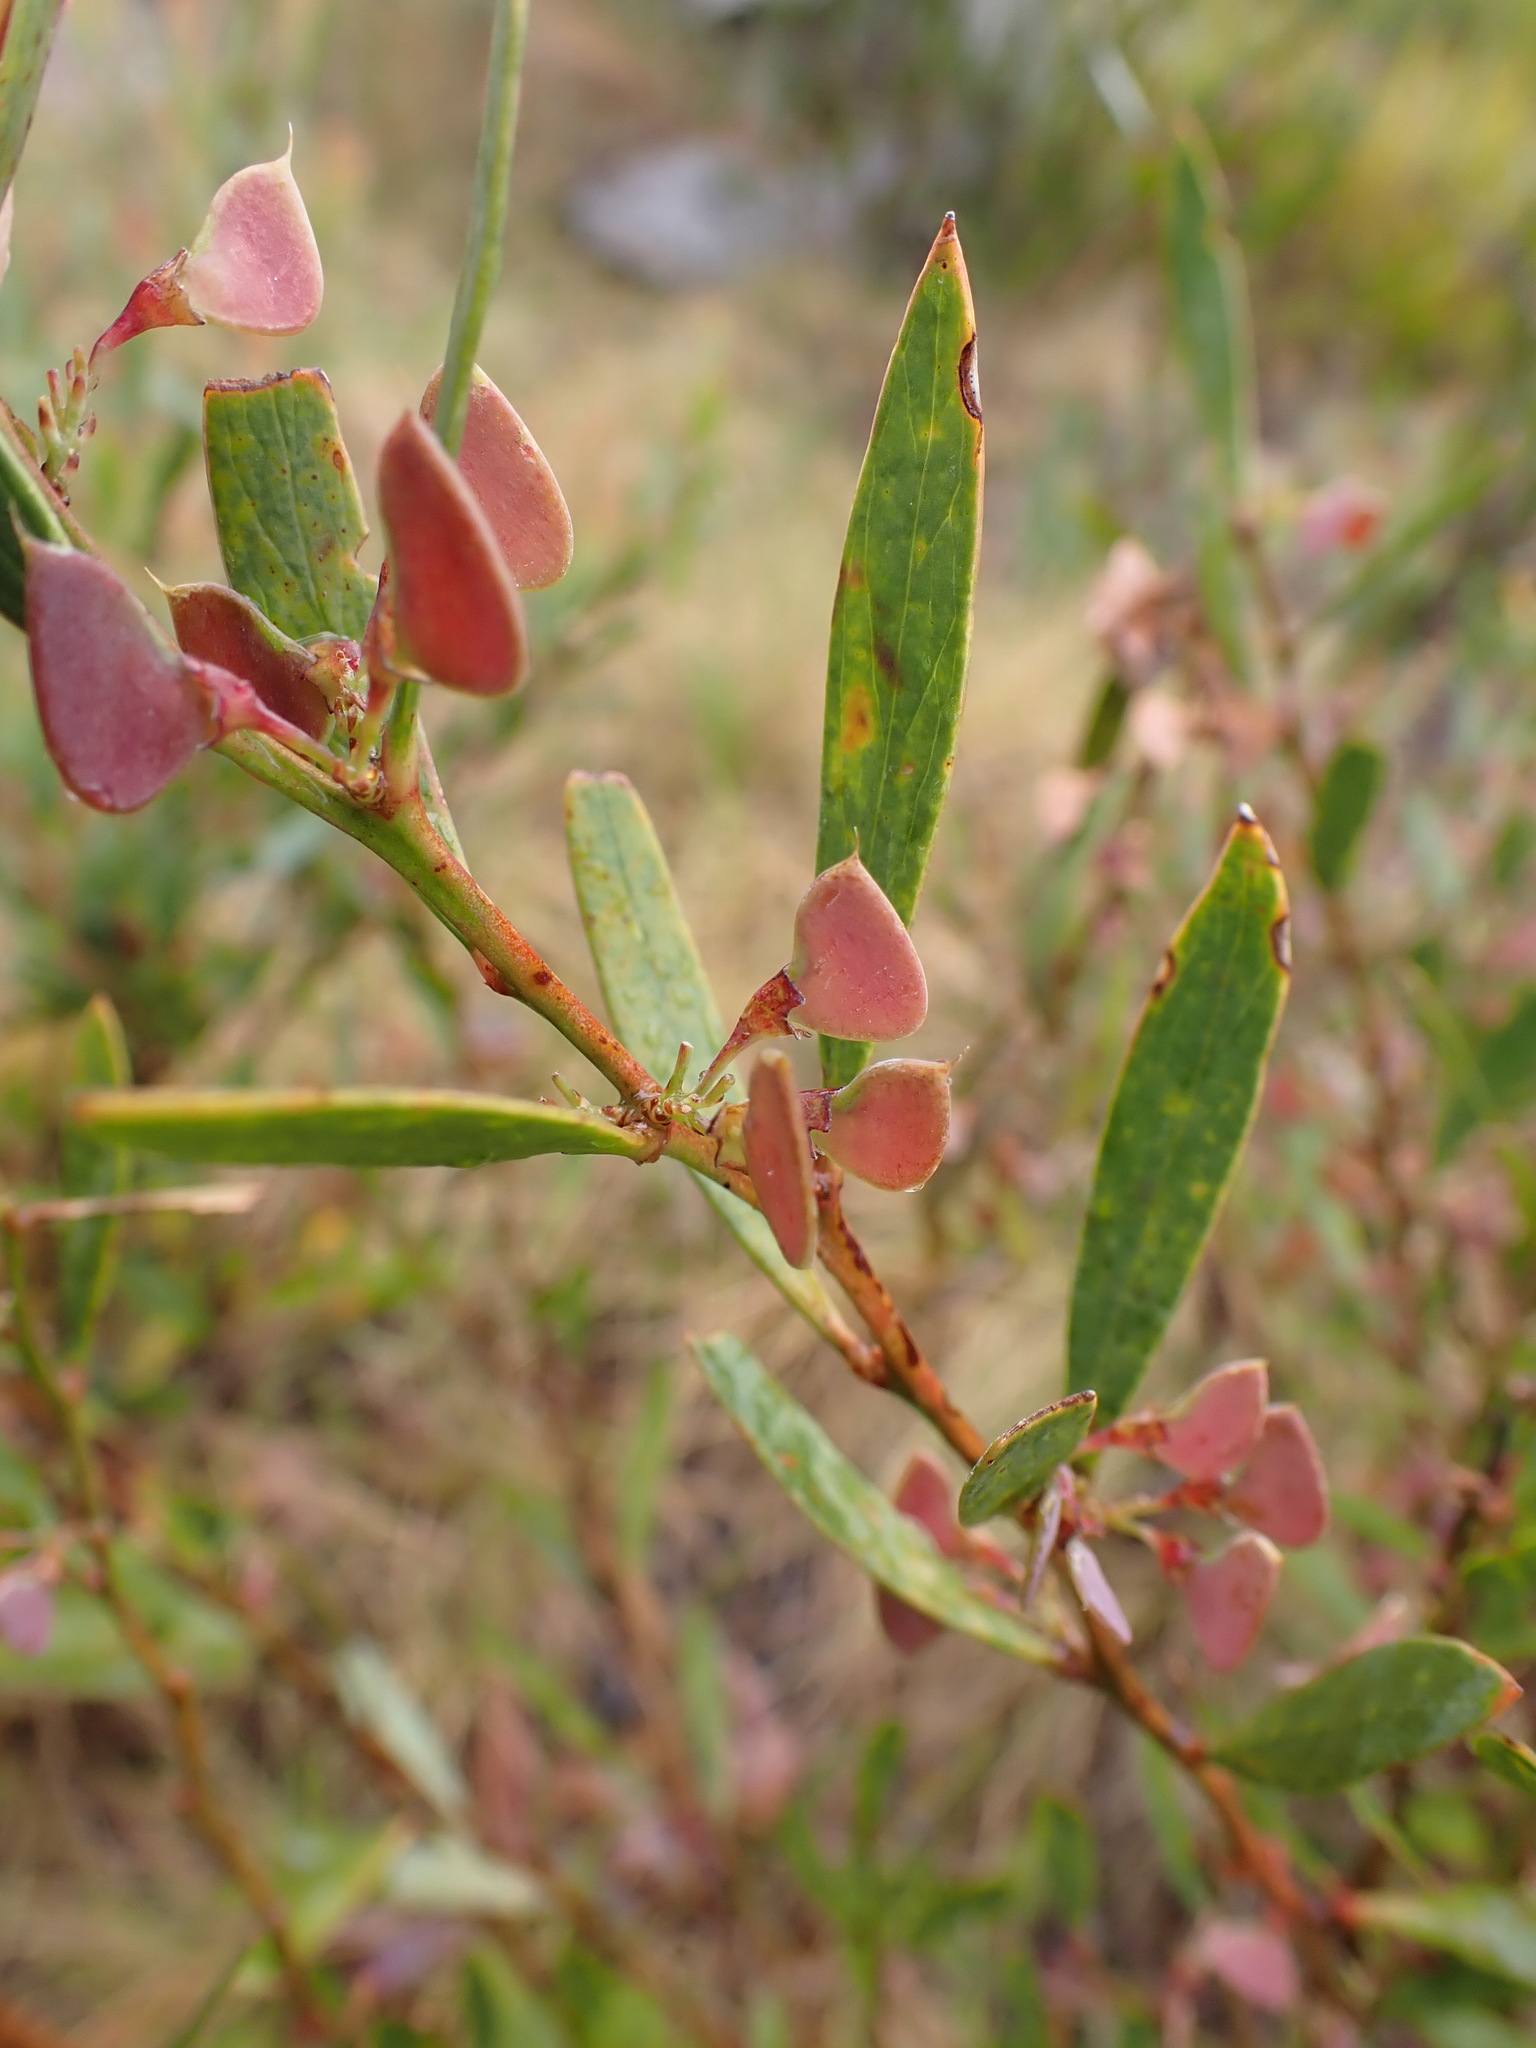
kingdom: Plantae
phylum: Tracheophyta
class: Magnoliopsida
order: Fabales
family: Fabaceae
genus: Daviesia
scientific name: Daviesia mimosoides
